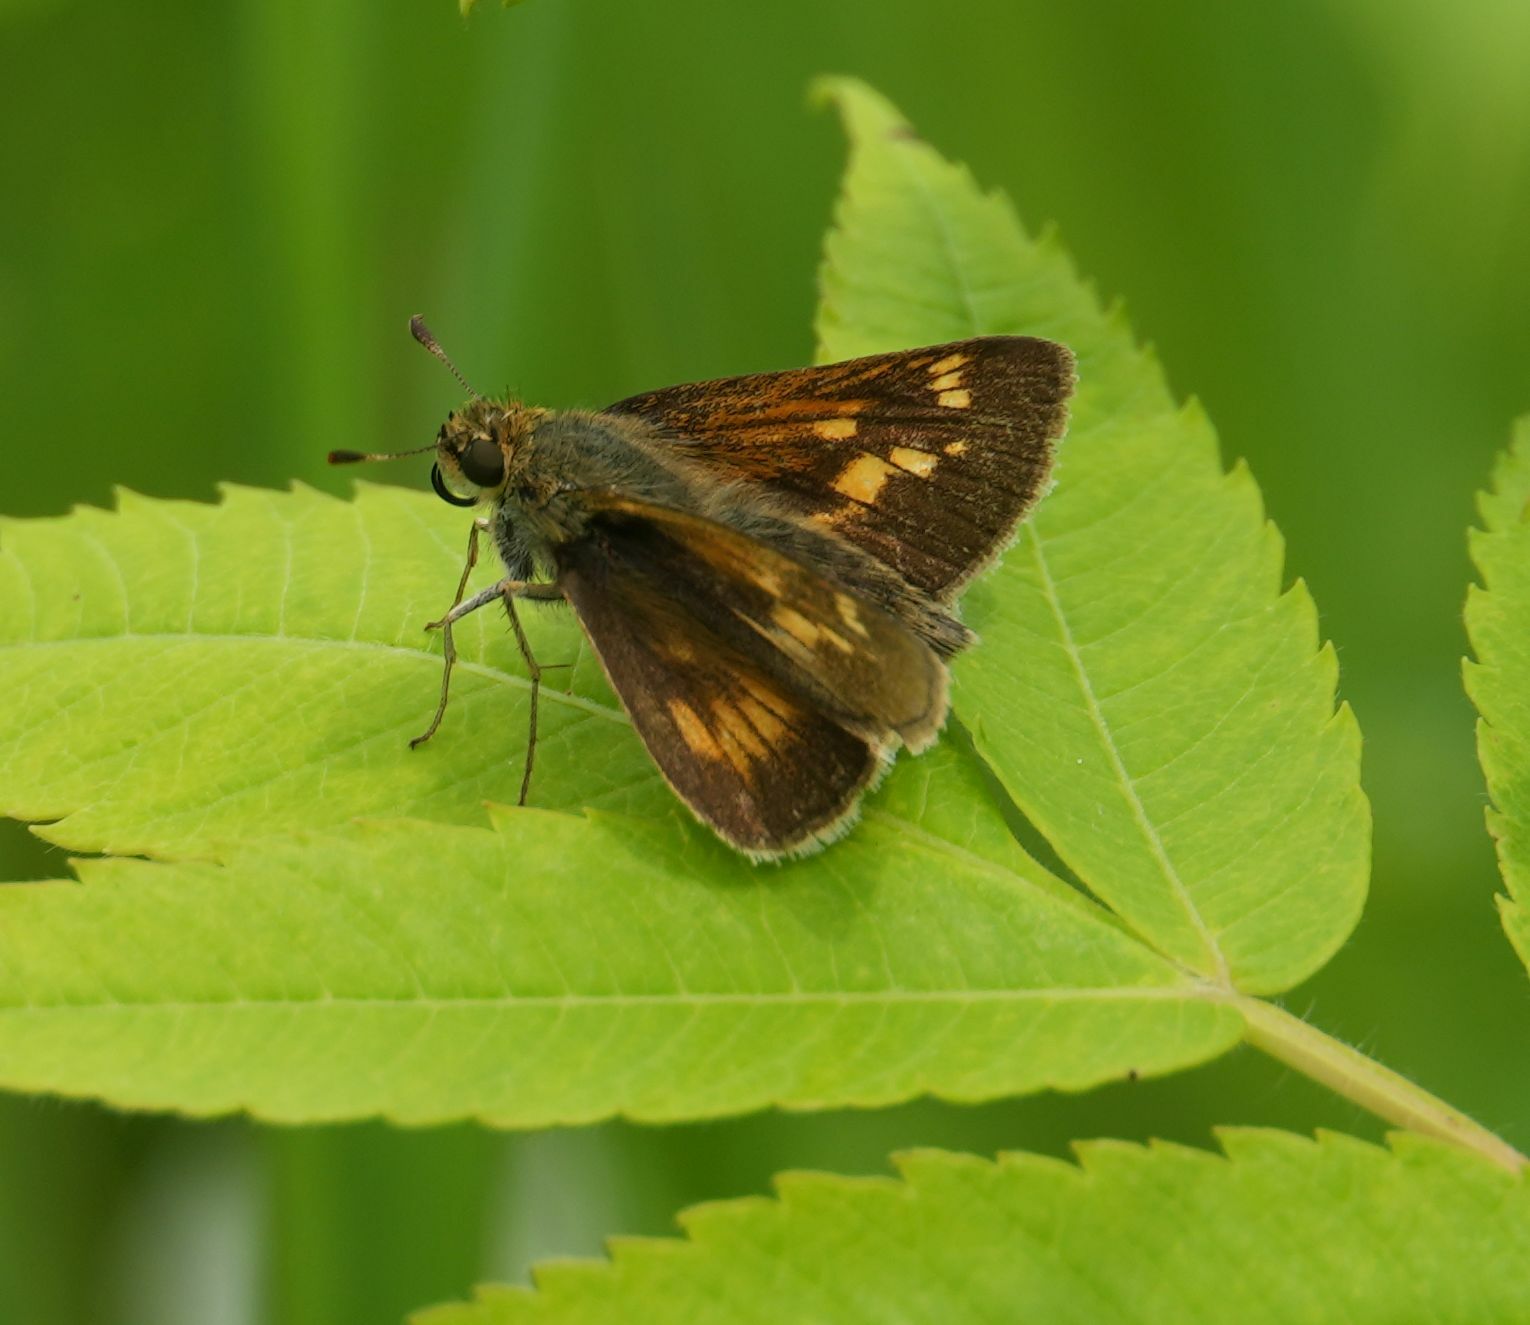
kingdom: Animalia
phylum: Arthropoda
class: Insecta
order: Lepidoptera
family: Hesperiidae
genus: Polites
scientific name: Polites mystic
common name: Long dash
